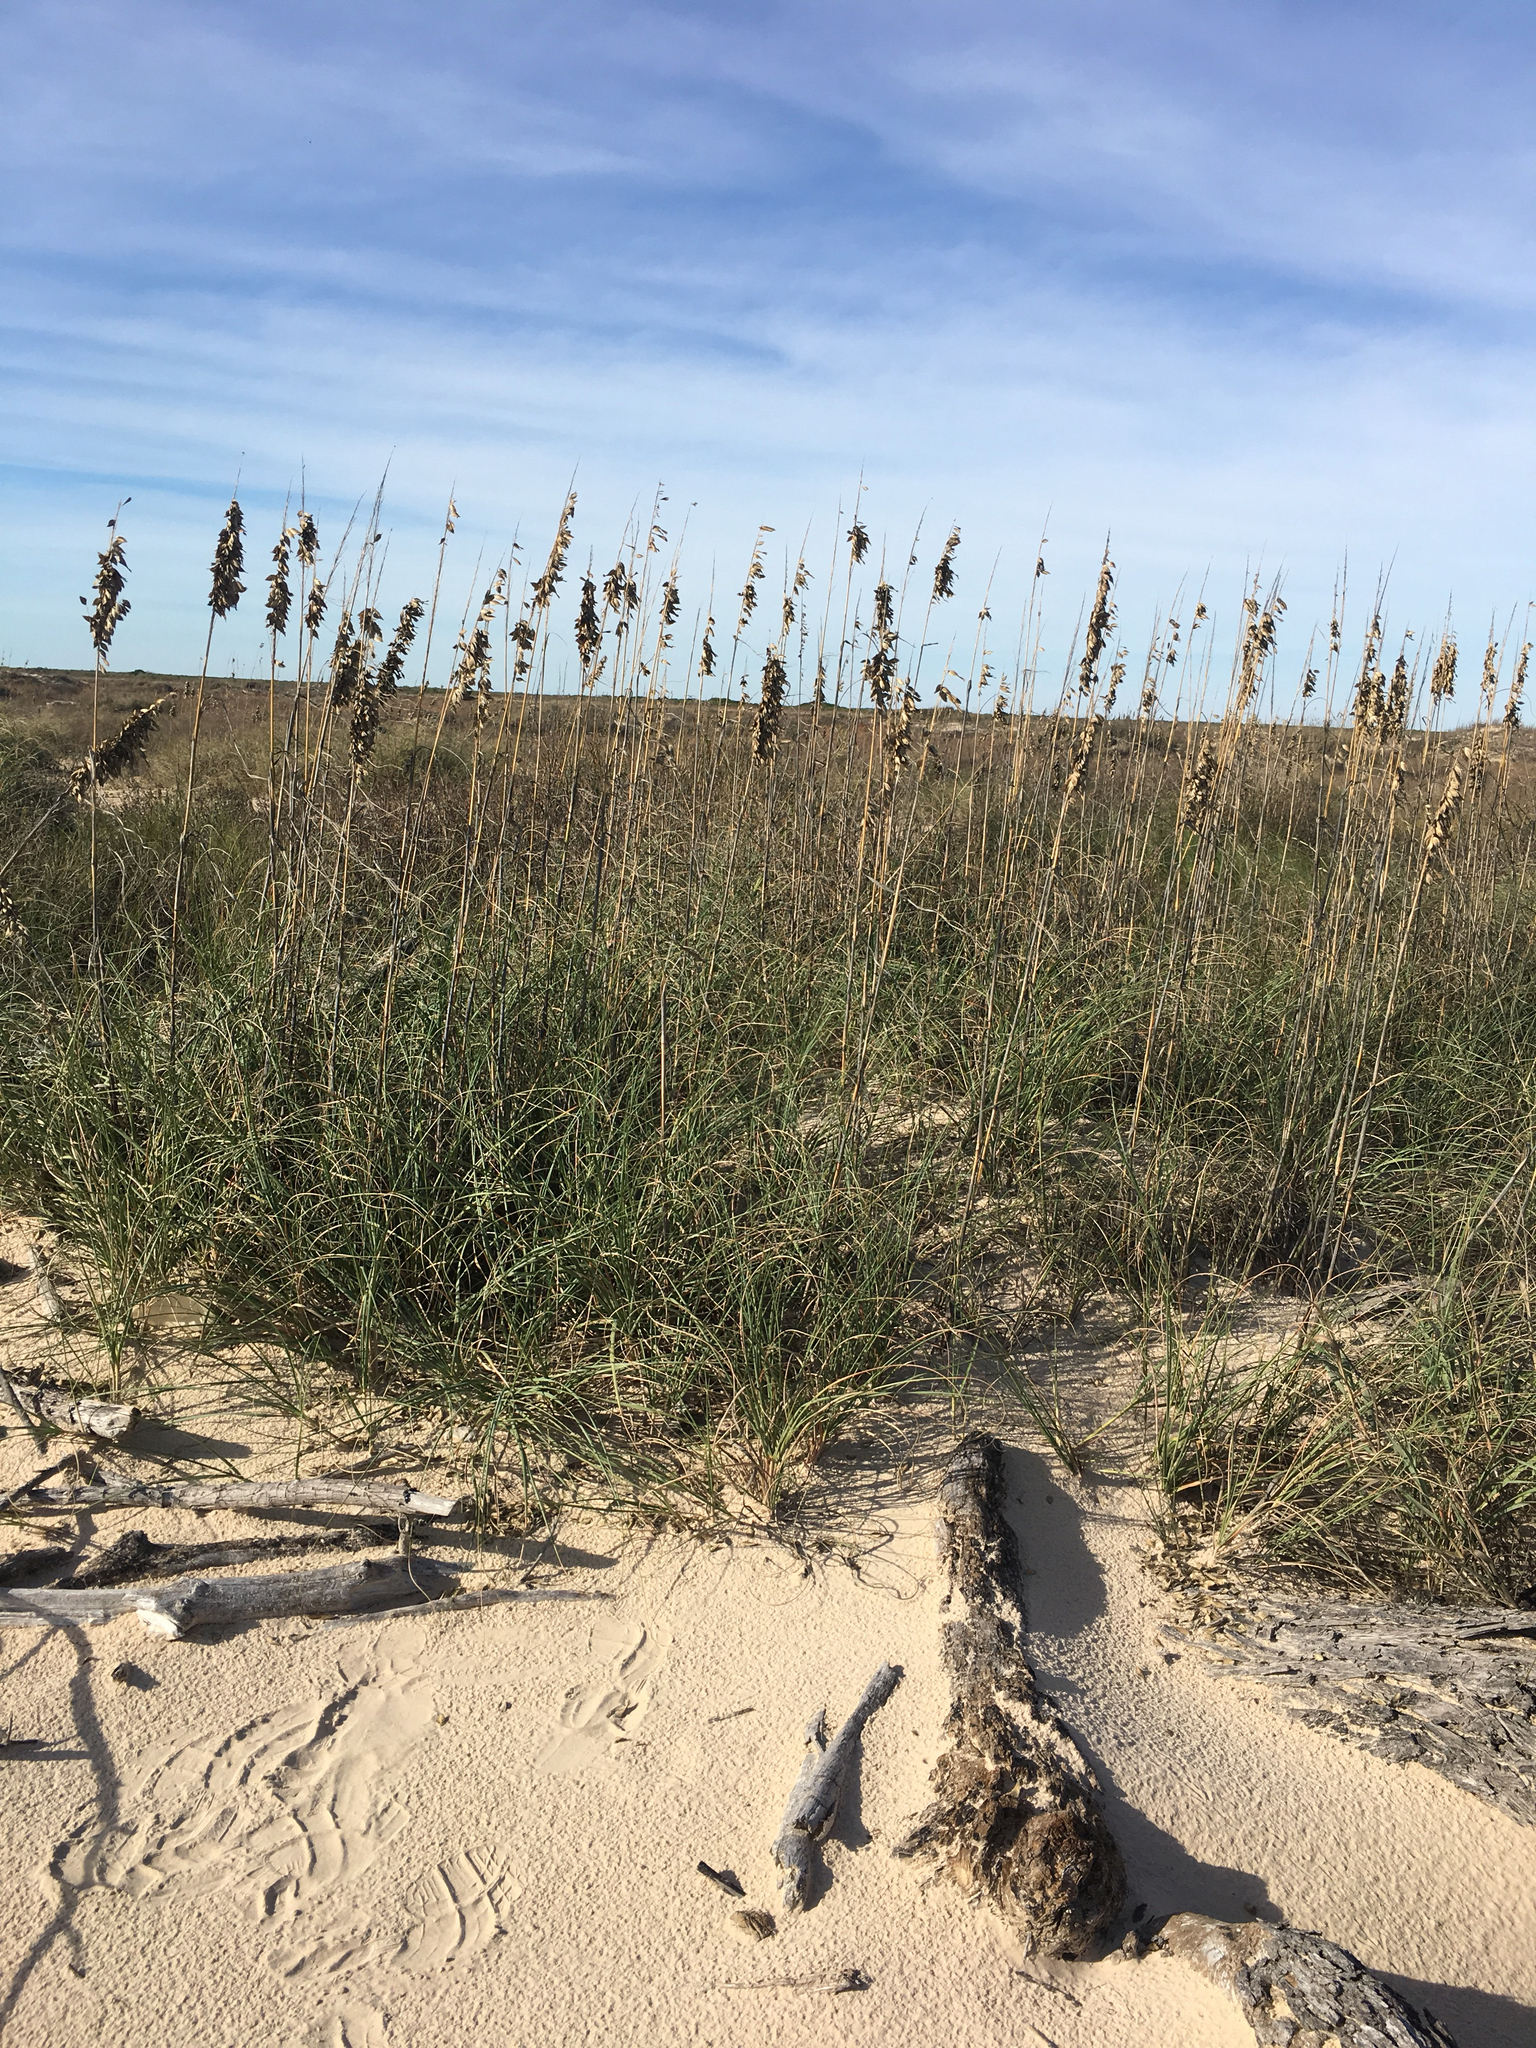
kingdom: Plantae
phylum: Tracheophyta
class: Liliopsida
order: Poales
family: Poaceae
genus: Uniola
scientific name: Uniola paniculata
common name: Seaside-oats
